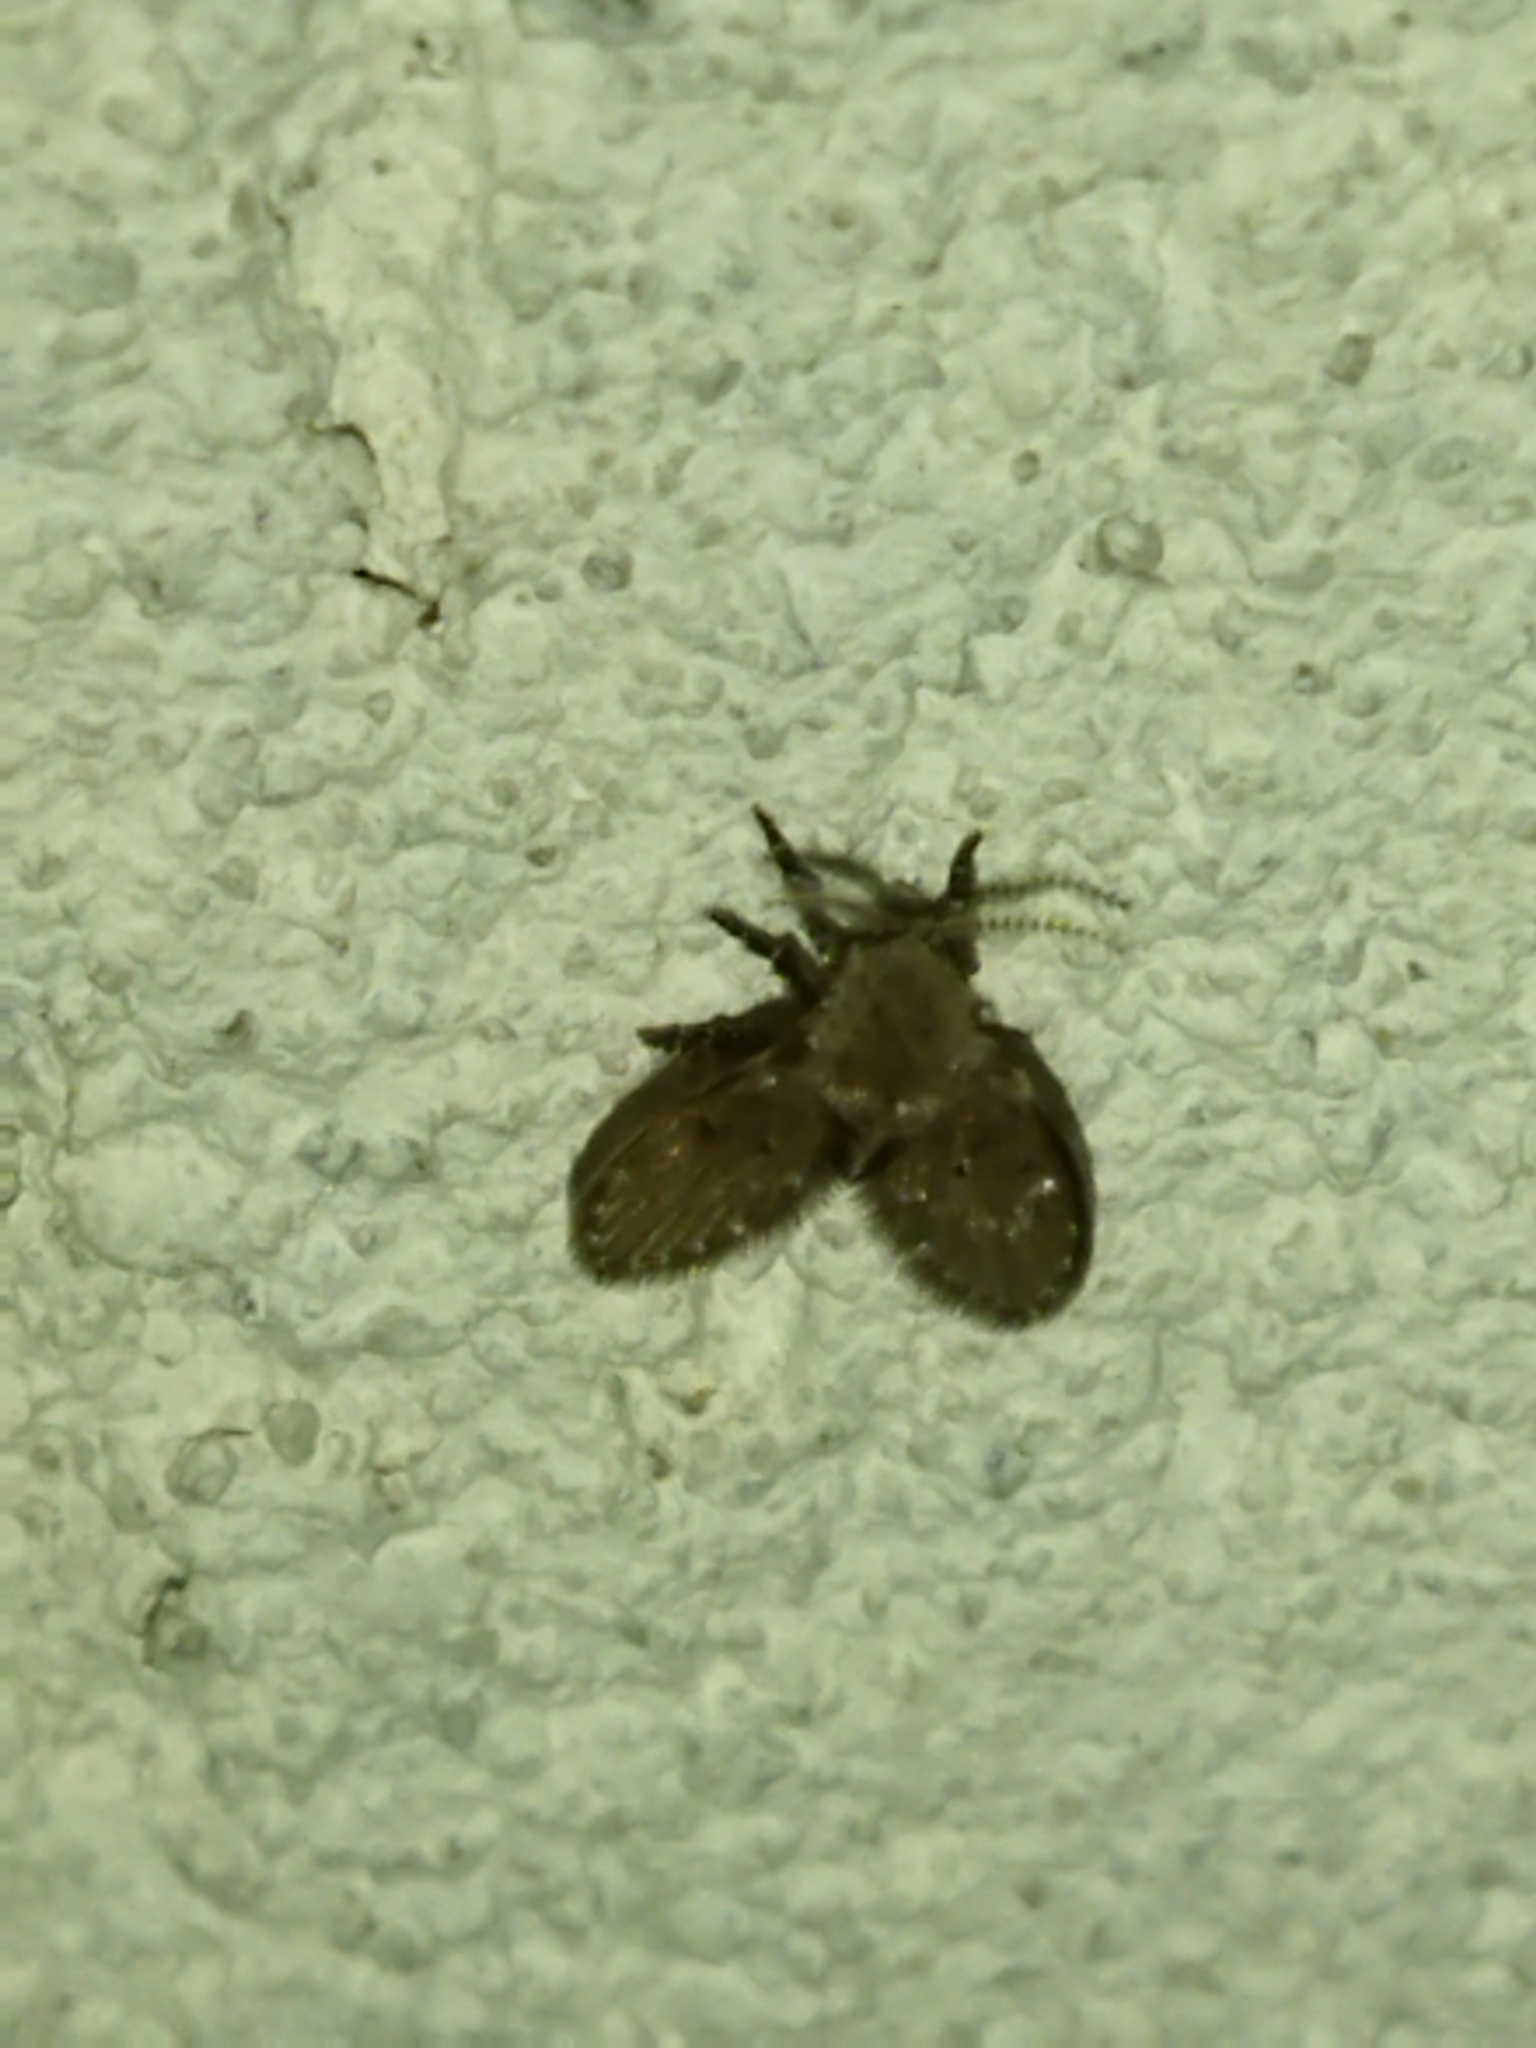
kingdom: Animalia
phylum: Arthropoda
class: Insecta
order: Diptera
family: Psychodidae
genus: Clogmia
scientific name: Clogmia albipunctatus
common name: White-spotted moth fly
